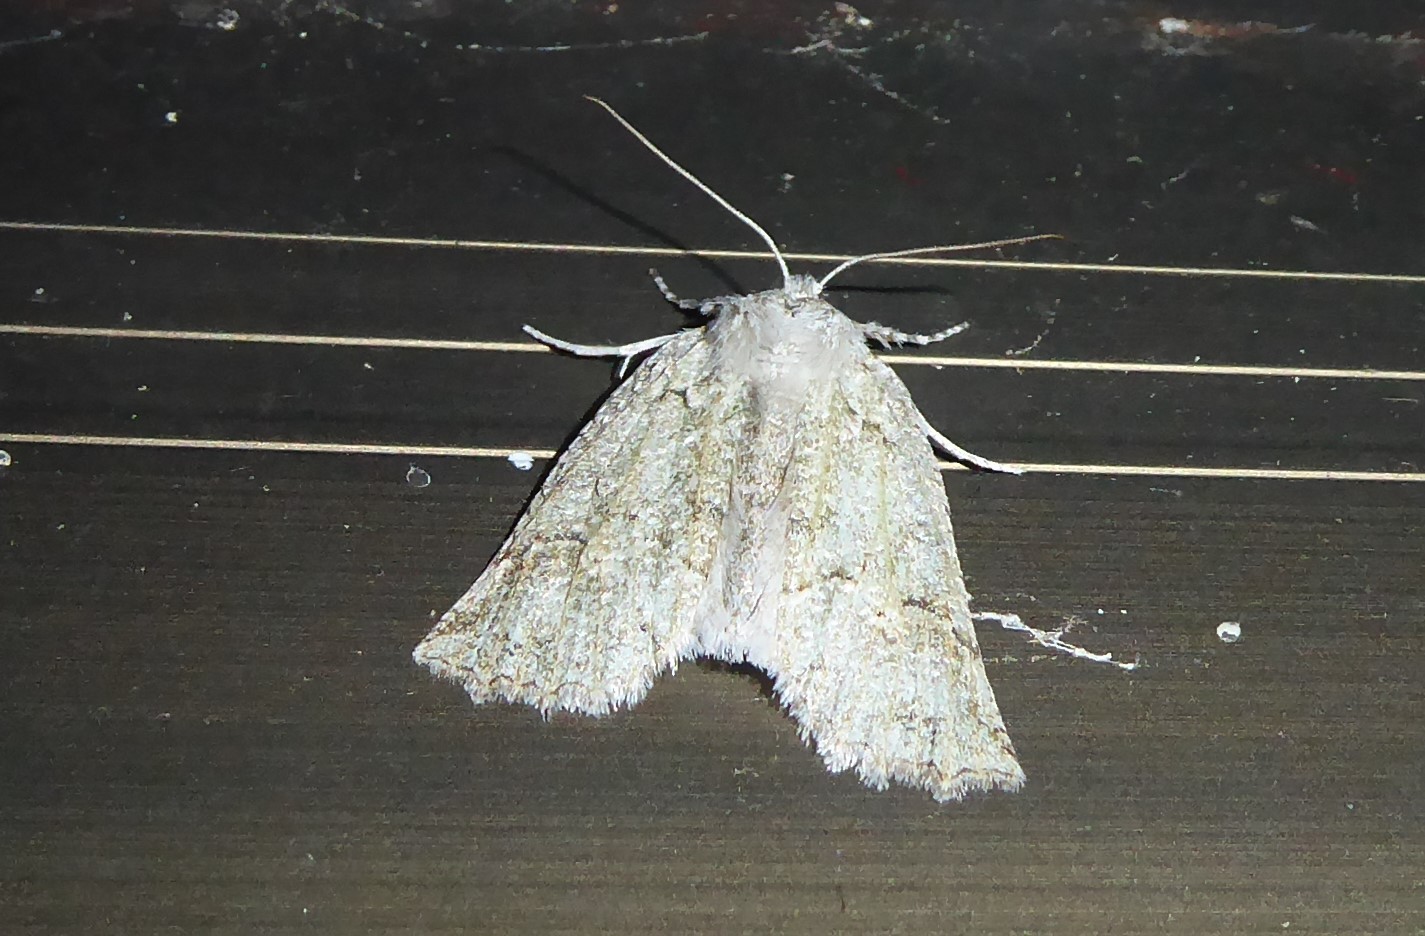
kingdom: Animalia
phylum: Arthropoda
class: Insecta
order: Lepidoptera
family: Geometridae
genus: Declana
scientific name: Declana niveata
